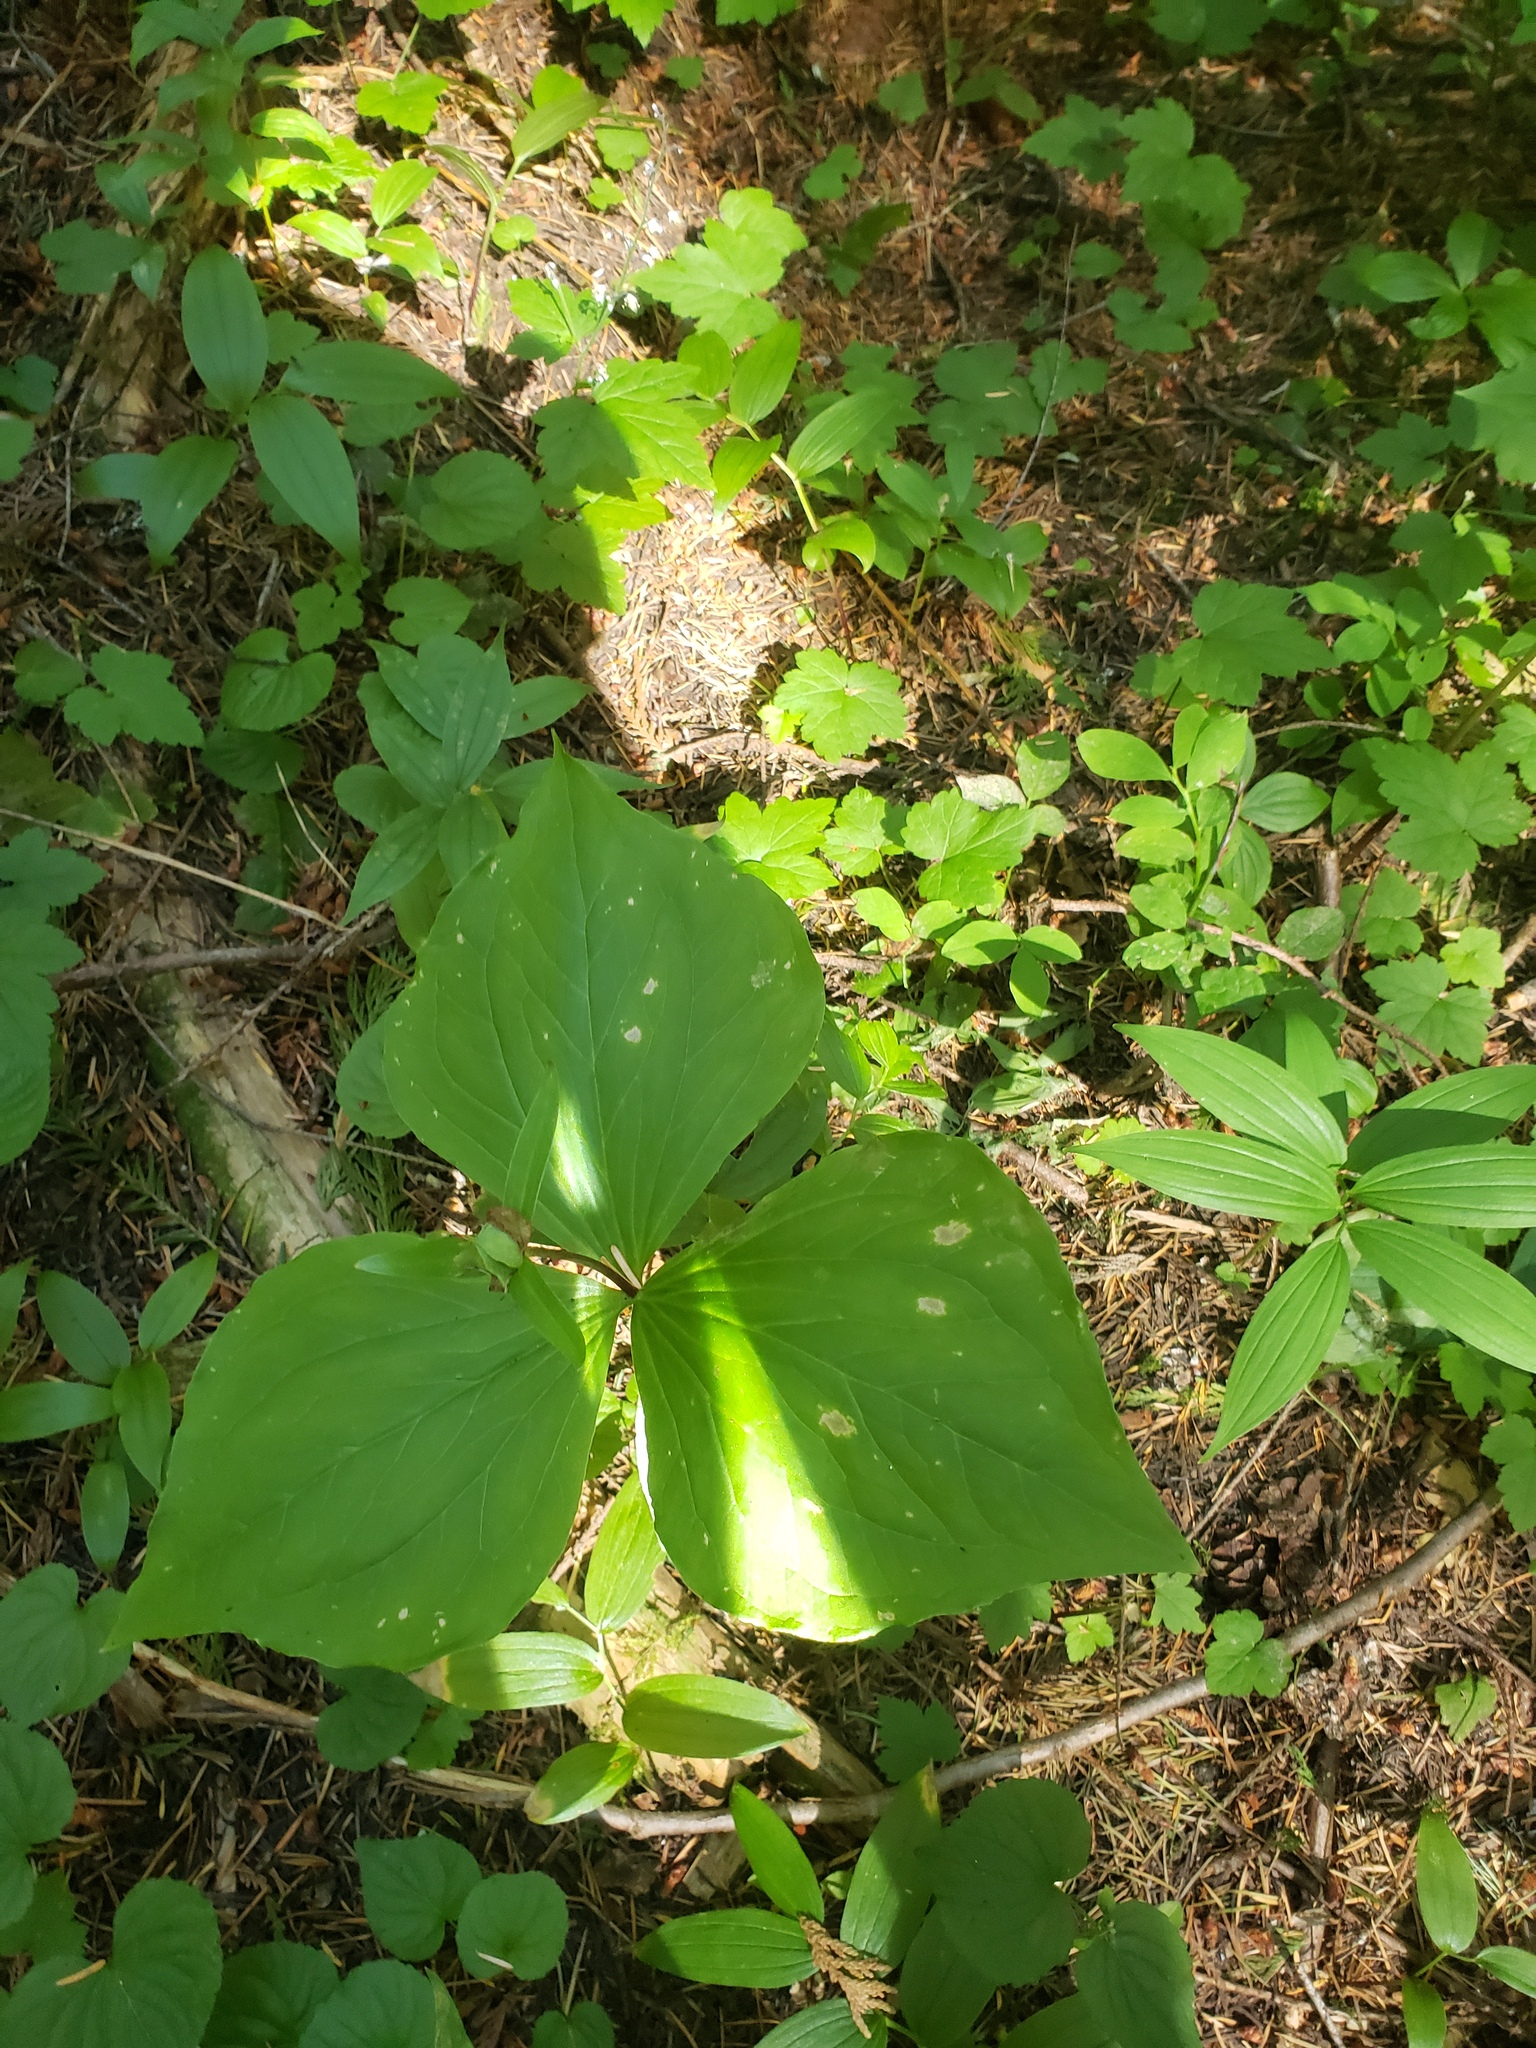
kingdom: Plantae
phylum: Tracheophyta
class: Liliopsida
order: Liliales
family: Melanthiaceae
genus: Trillium
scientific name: Trillium ovatum
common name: Pacific trillium
